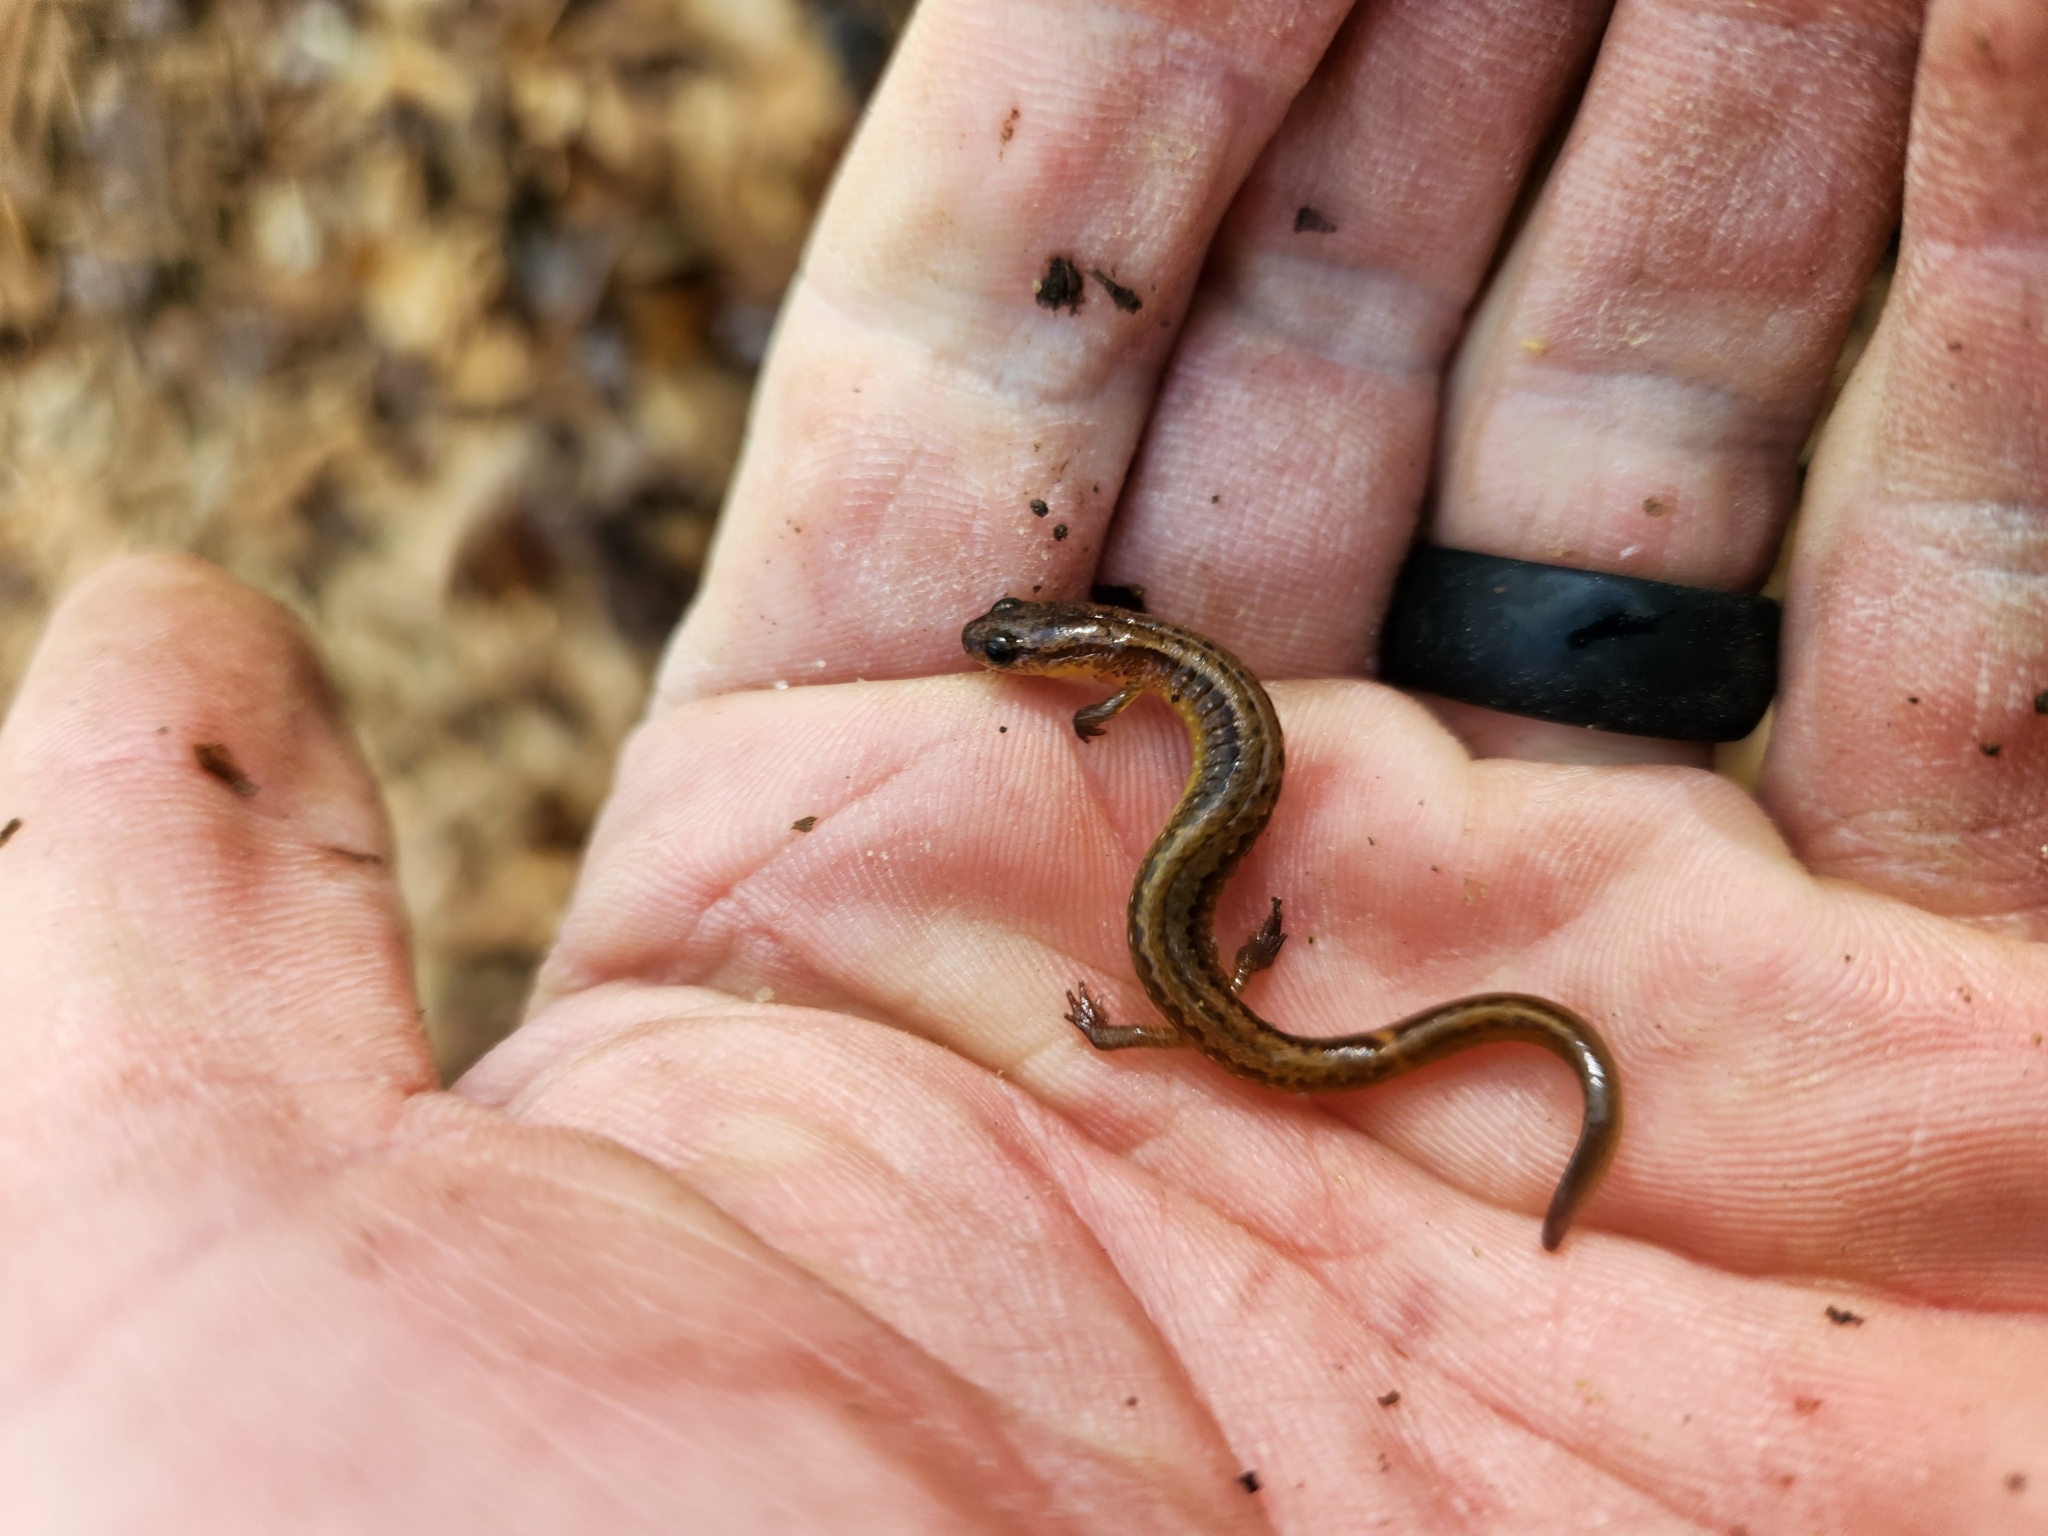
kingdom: Animalia
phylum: Chordata
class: Amphibia
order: Caudata
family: Plethodontidae
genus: Eurycea
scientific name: Eurycea multiplicata
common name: Many-ribbed salamander
